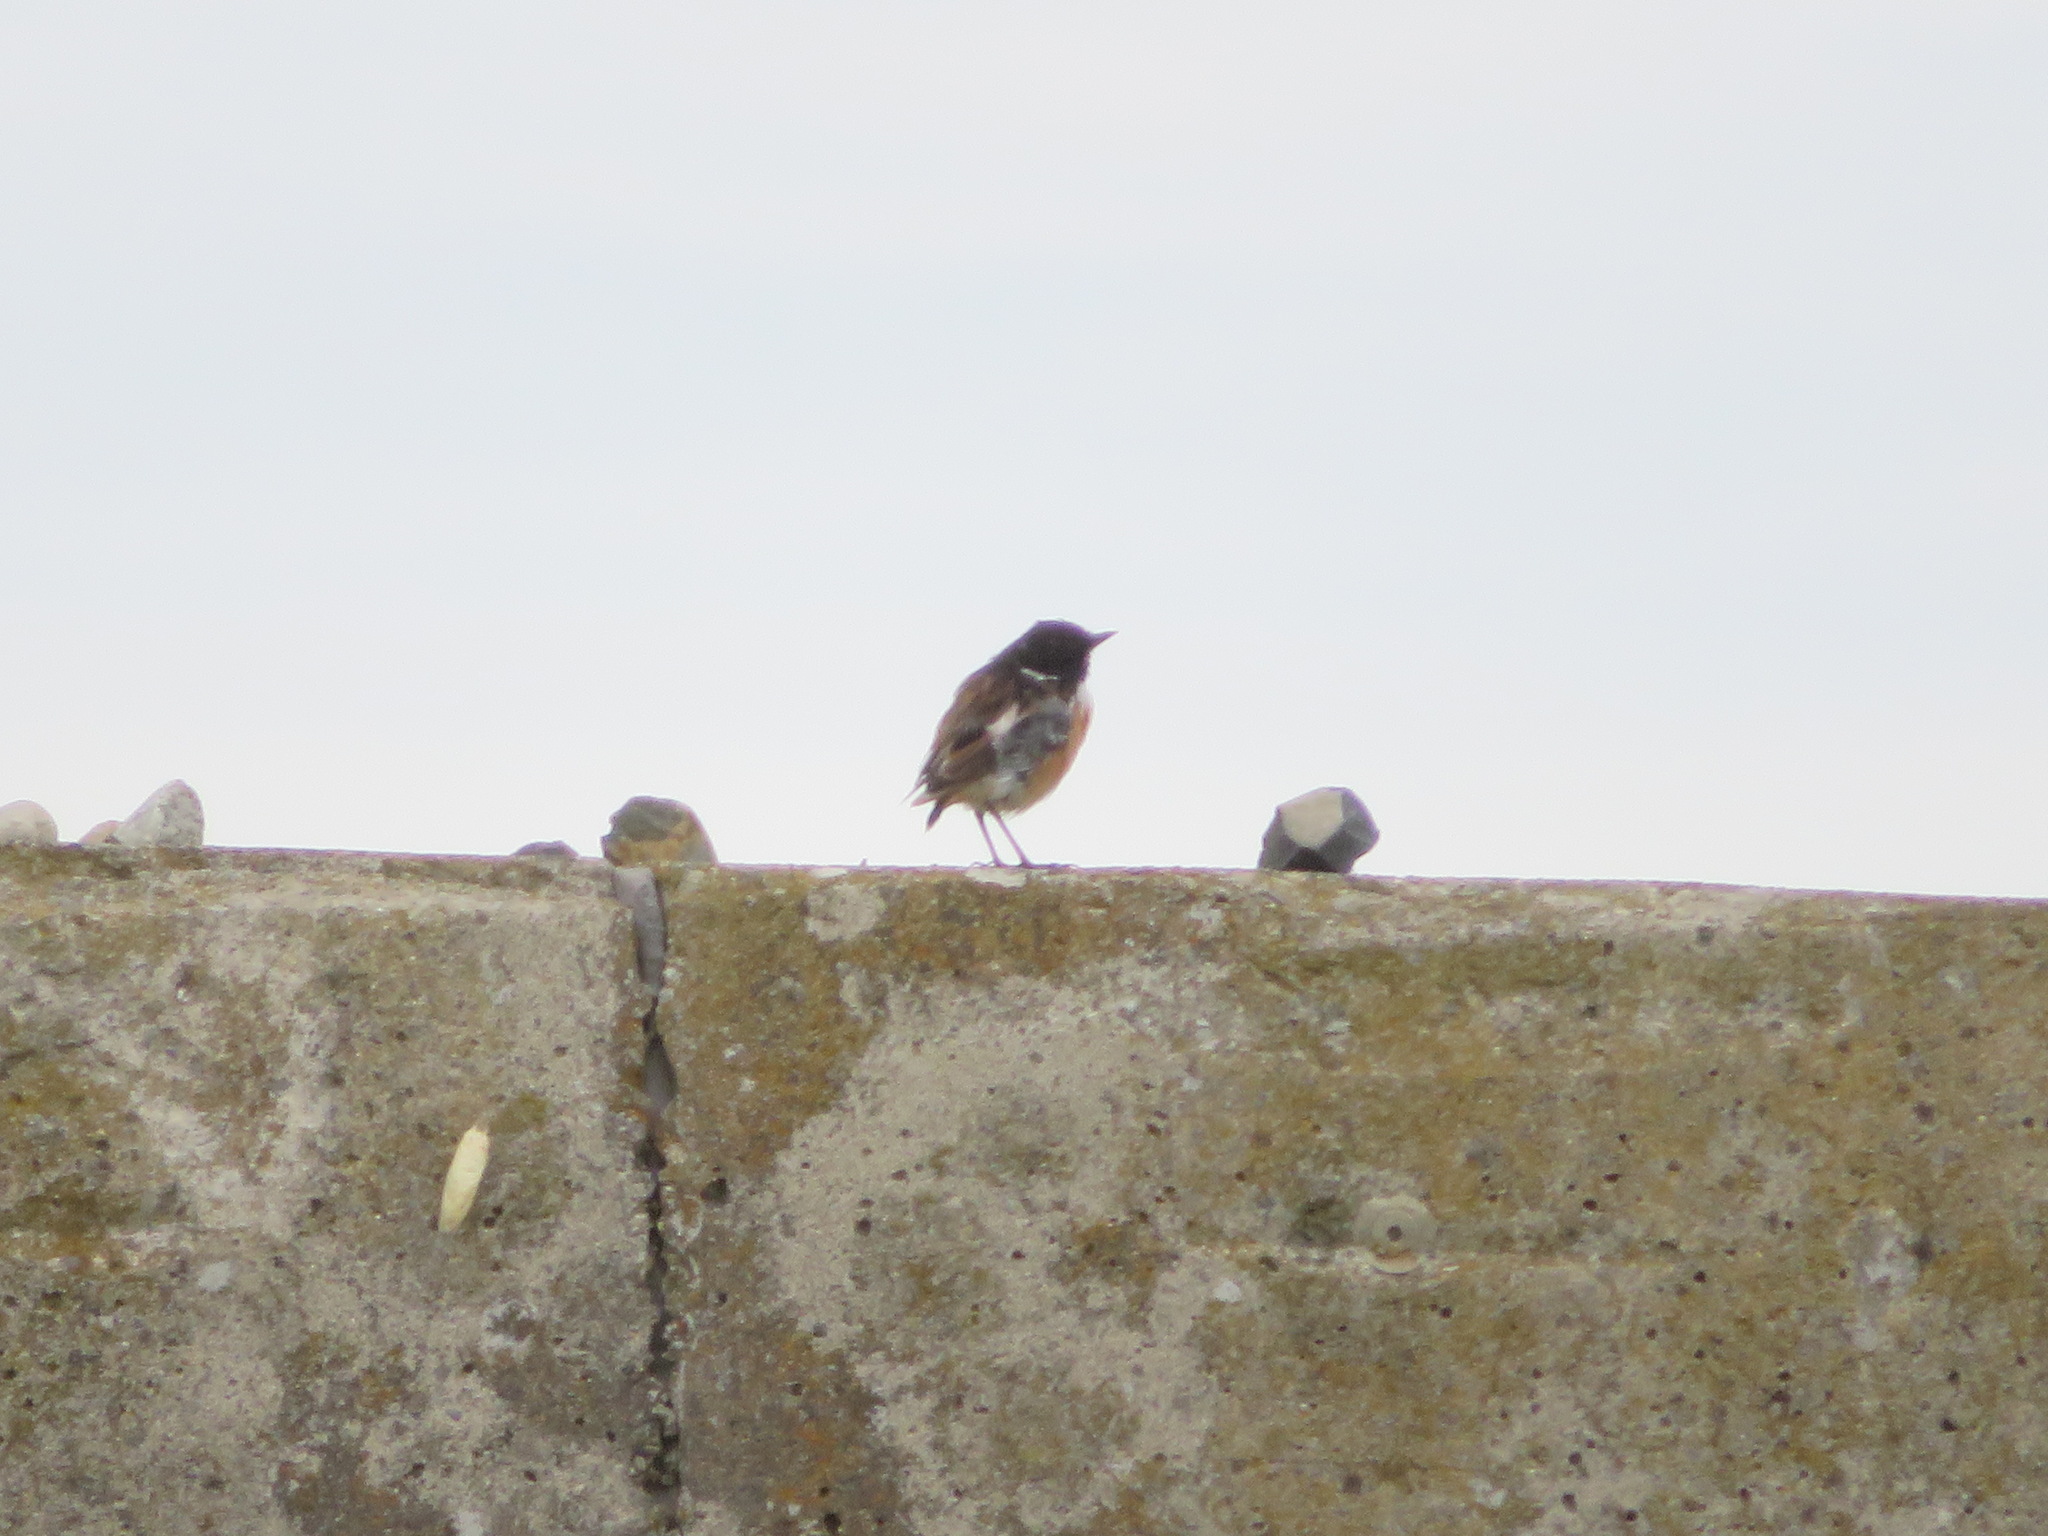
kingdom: Animalia
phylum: Chordata
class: Aves
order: Passeriformes
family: Muscicapidae
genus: Saxicola
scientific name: Saxicola stejnegeri
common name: Stejneger's stonechat
